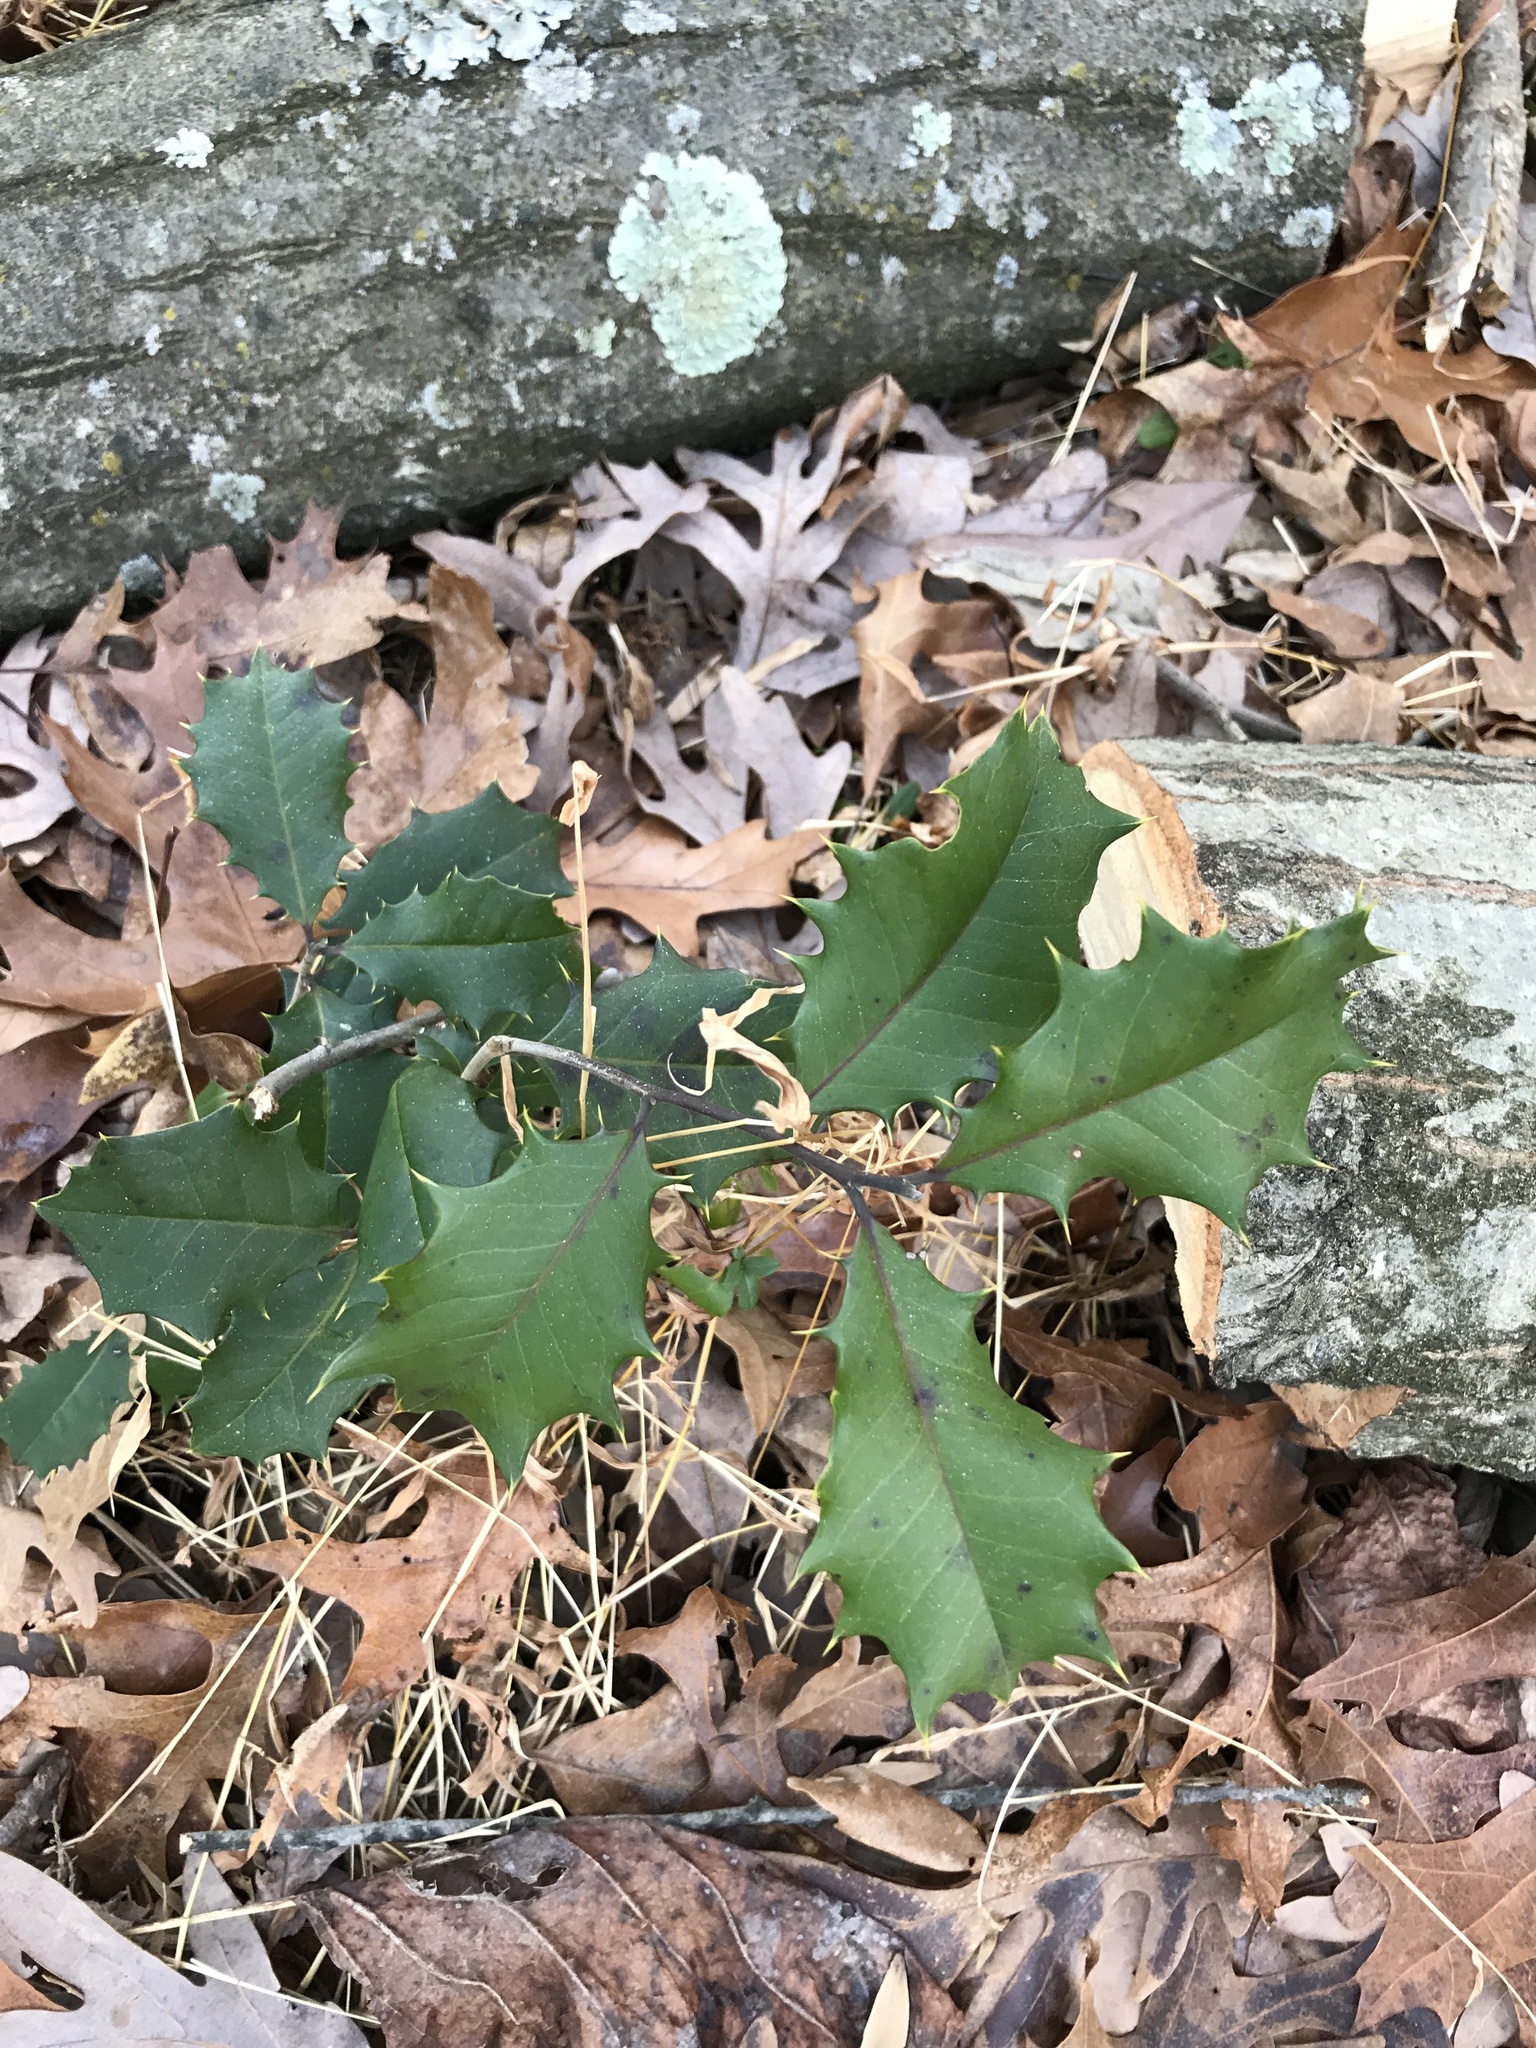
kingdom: Plantae
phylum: Tracheophyta
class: Magnoliopsida
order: Aquifoliales
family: Aquifoliaceae
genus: Ilex
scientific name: Ilex opaca
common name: American holly
